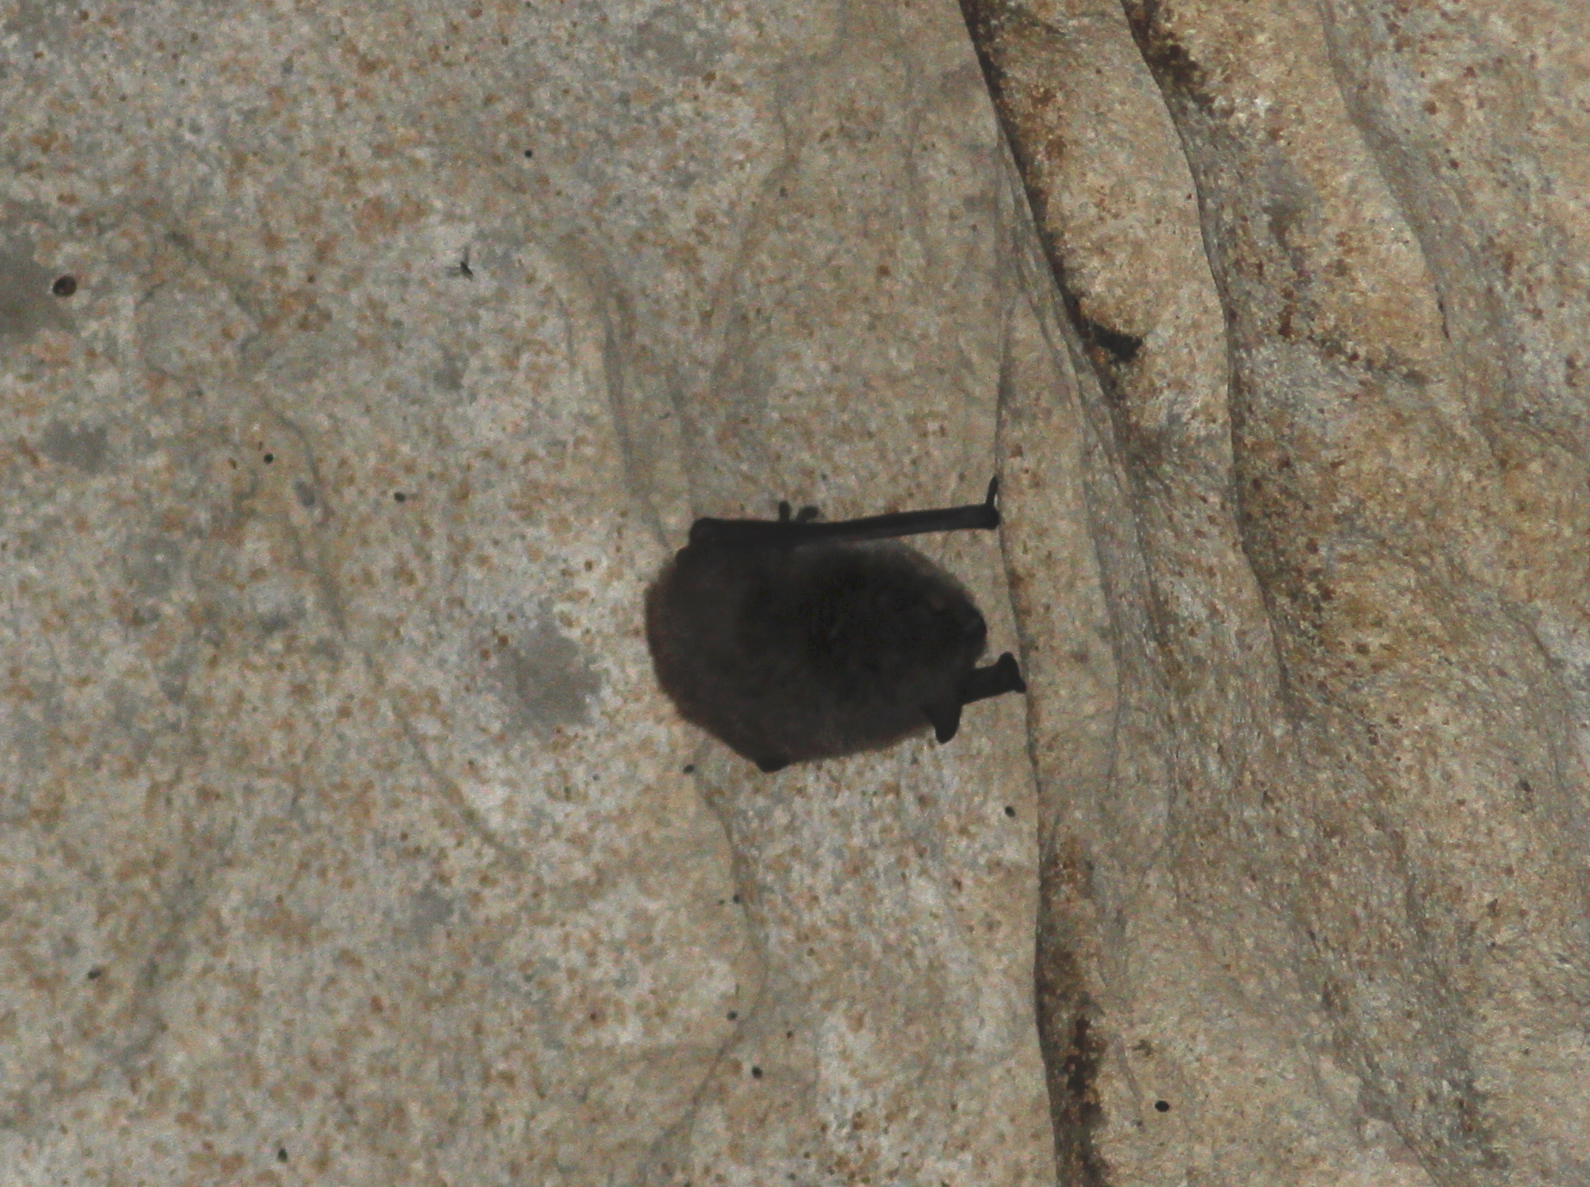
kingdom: Animalia
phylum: Chordata
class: Mammalia
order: Chiroptera
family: Vespertilionidae
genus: Myotis
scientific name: Myotis capaccinii
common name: Long-fingered bat
